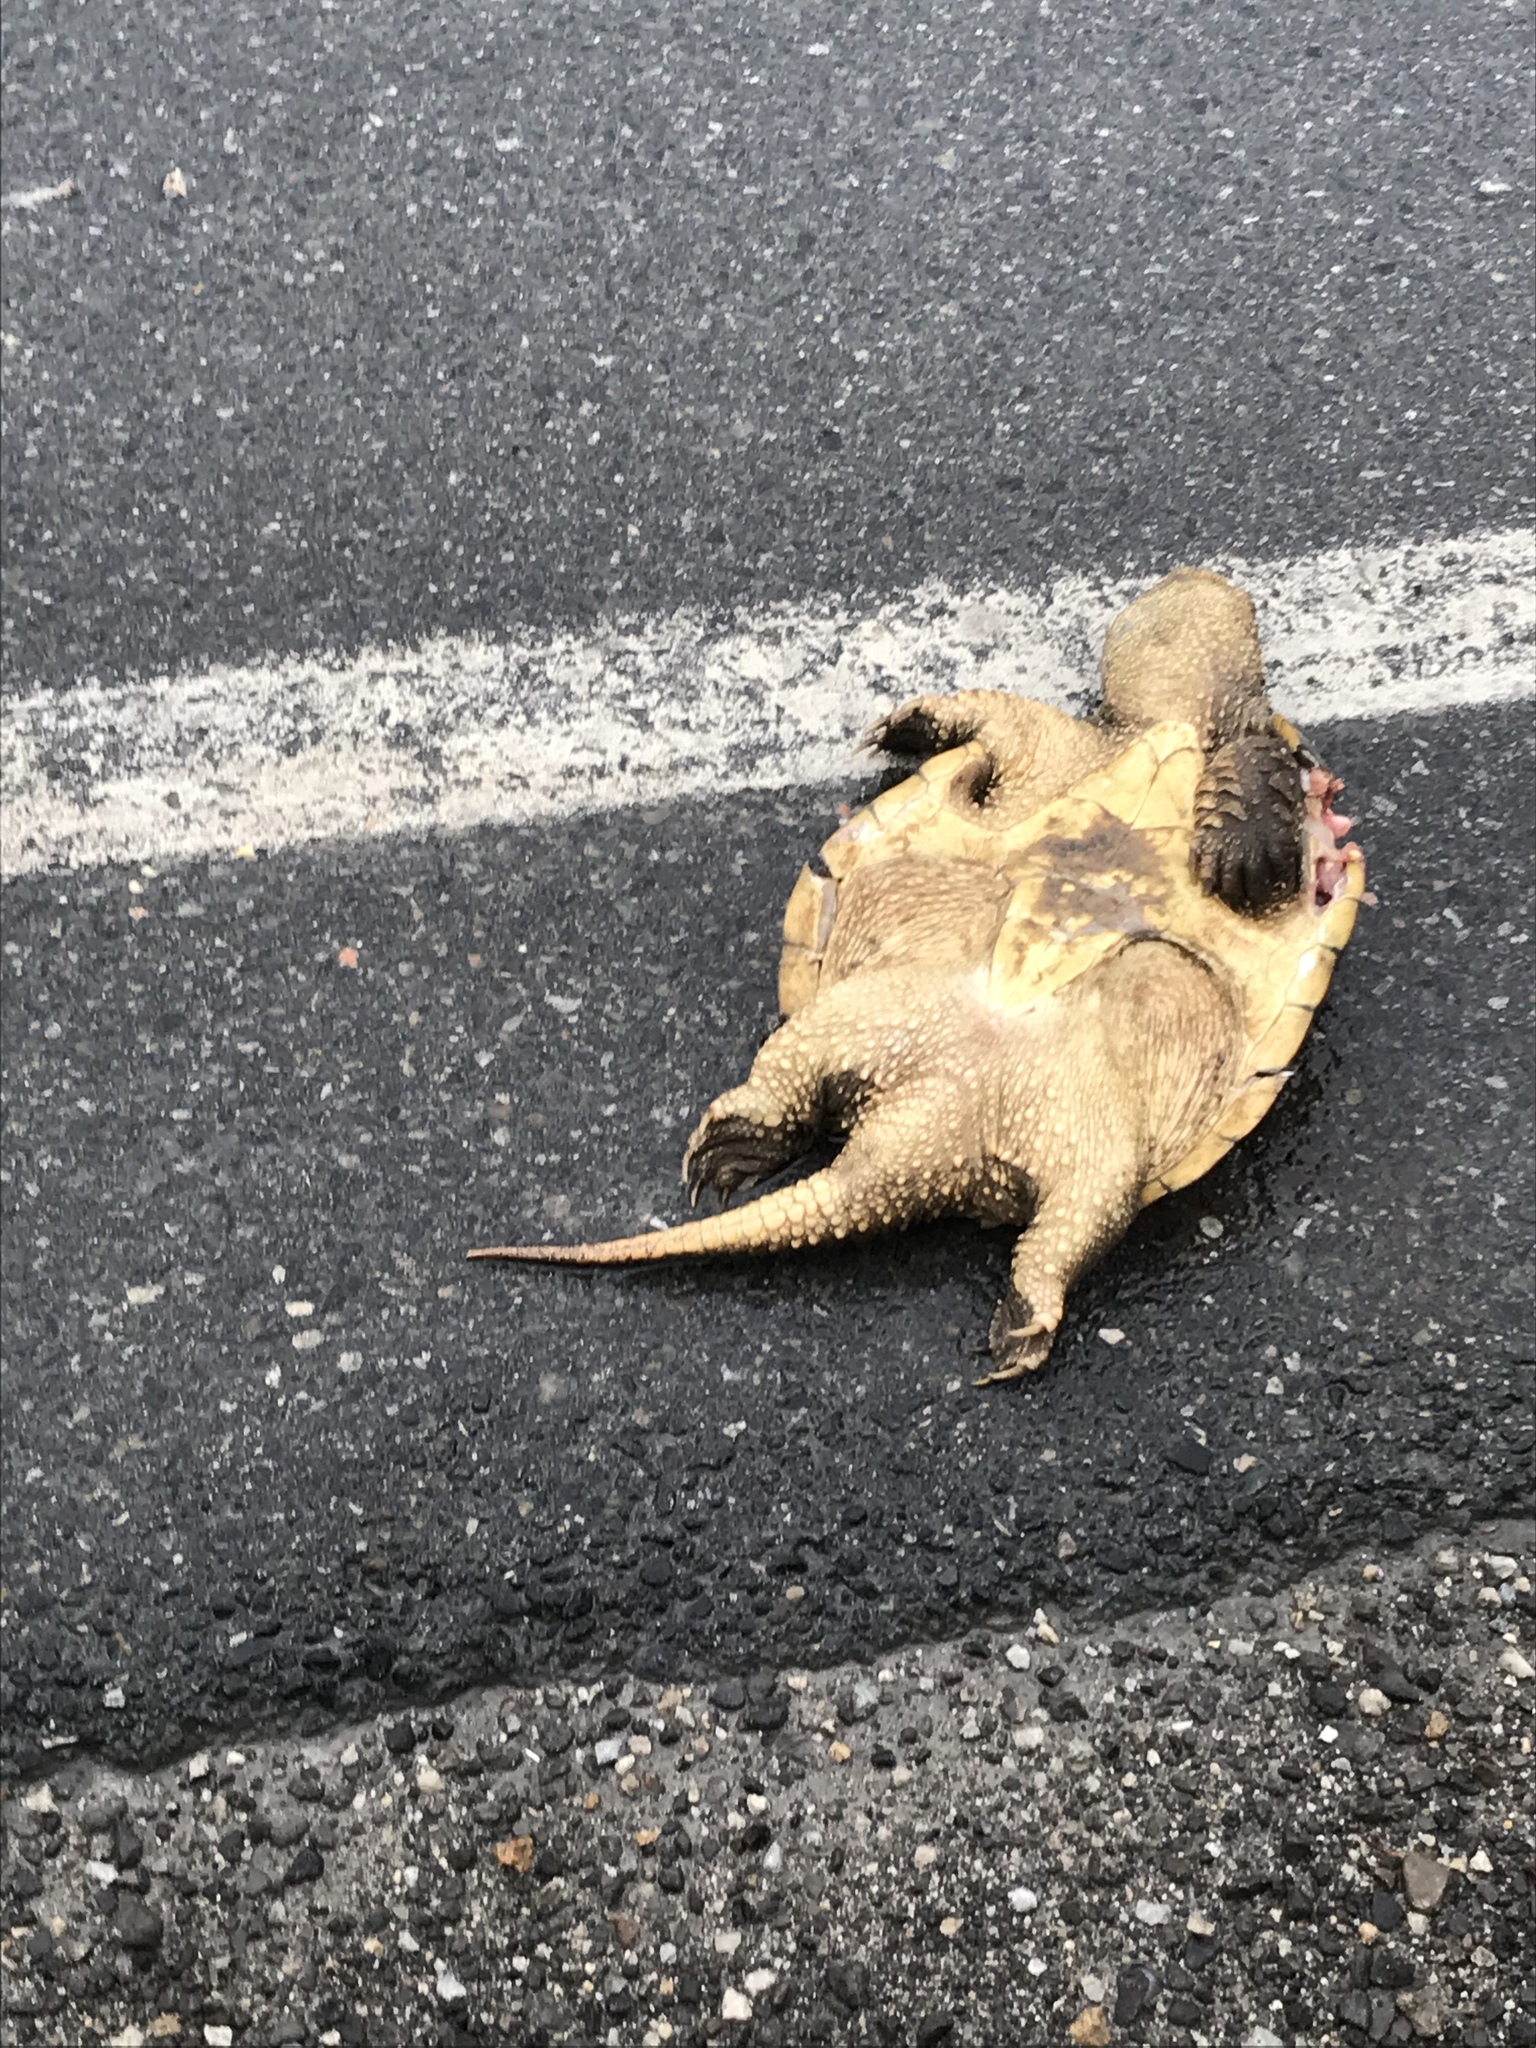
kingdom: Animalia
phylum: Chordata
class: Testudines
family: Chelydridae
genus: Chelydra
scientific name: Chelydra serpentina
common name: Common snapping turtle
